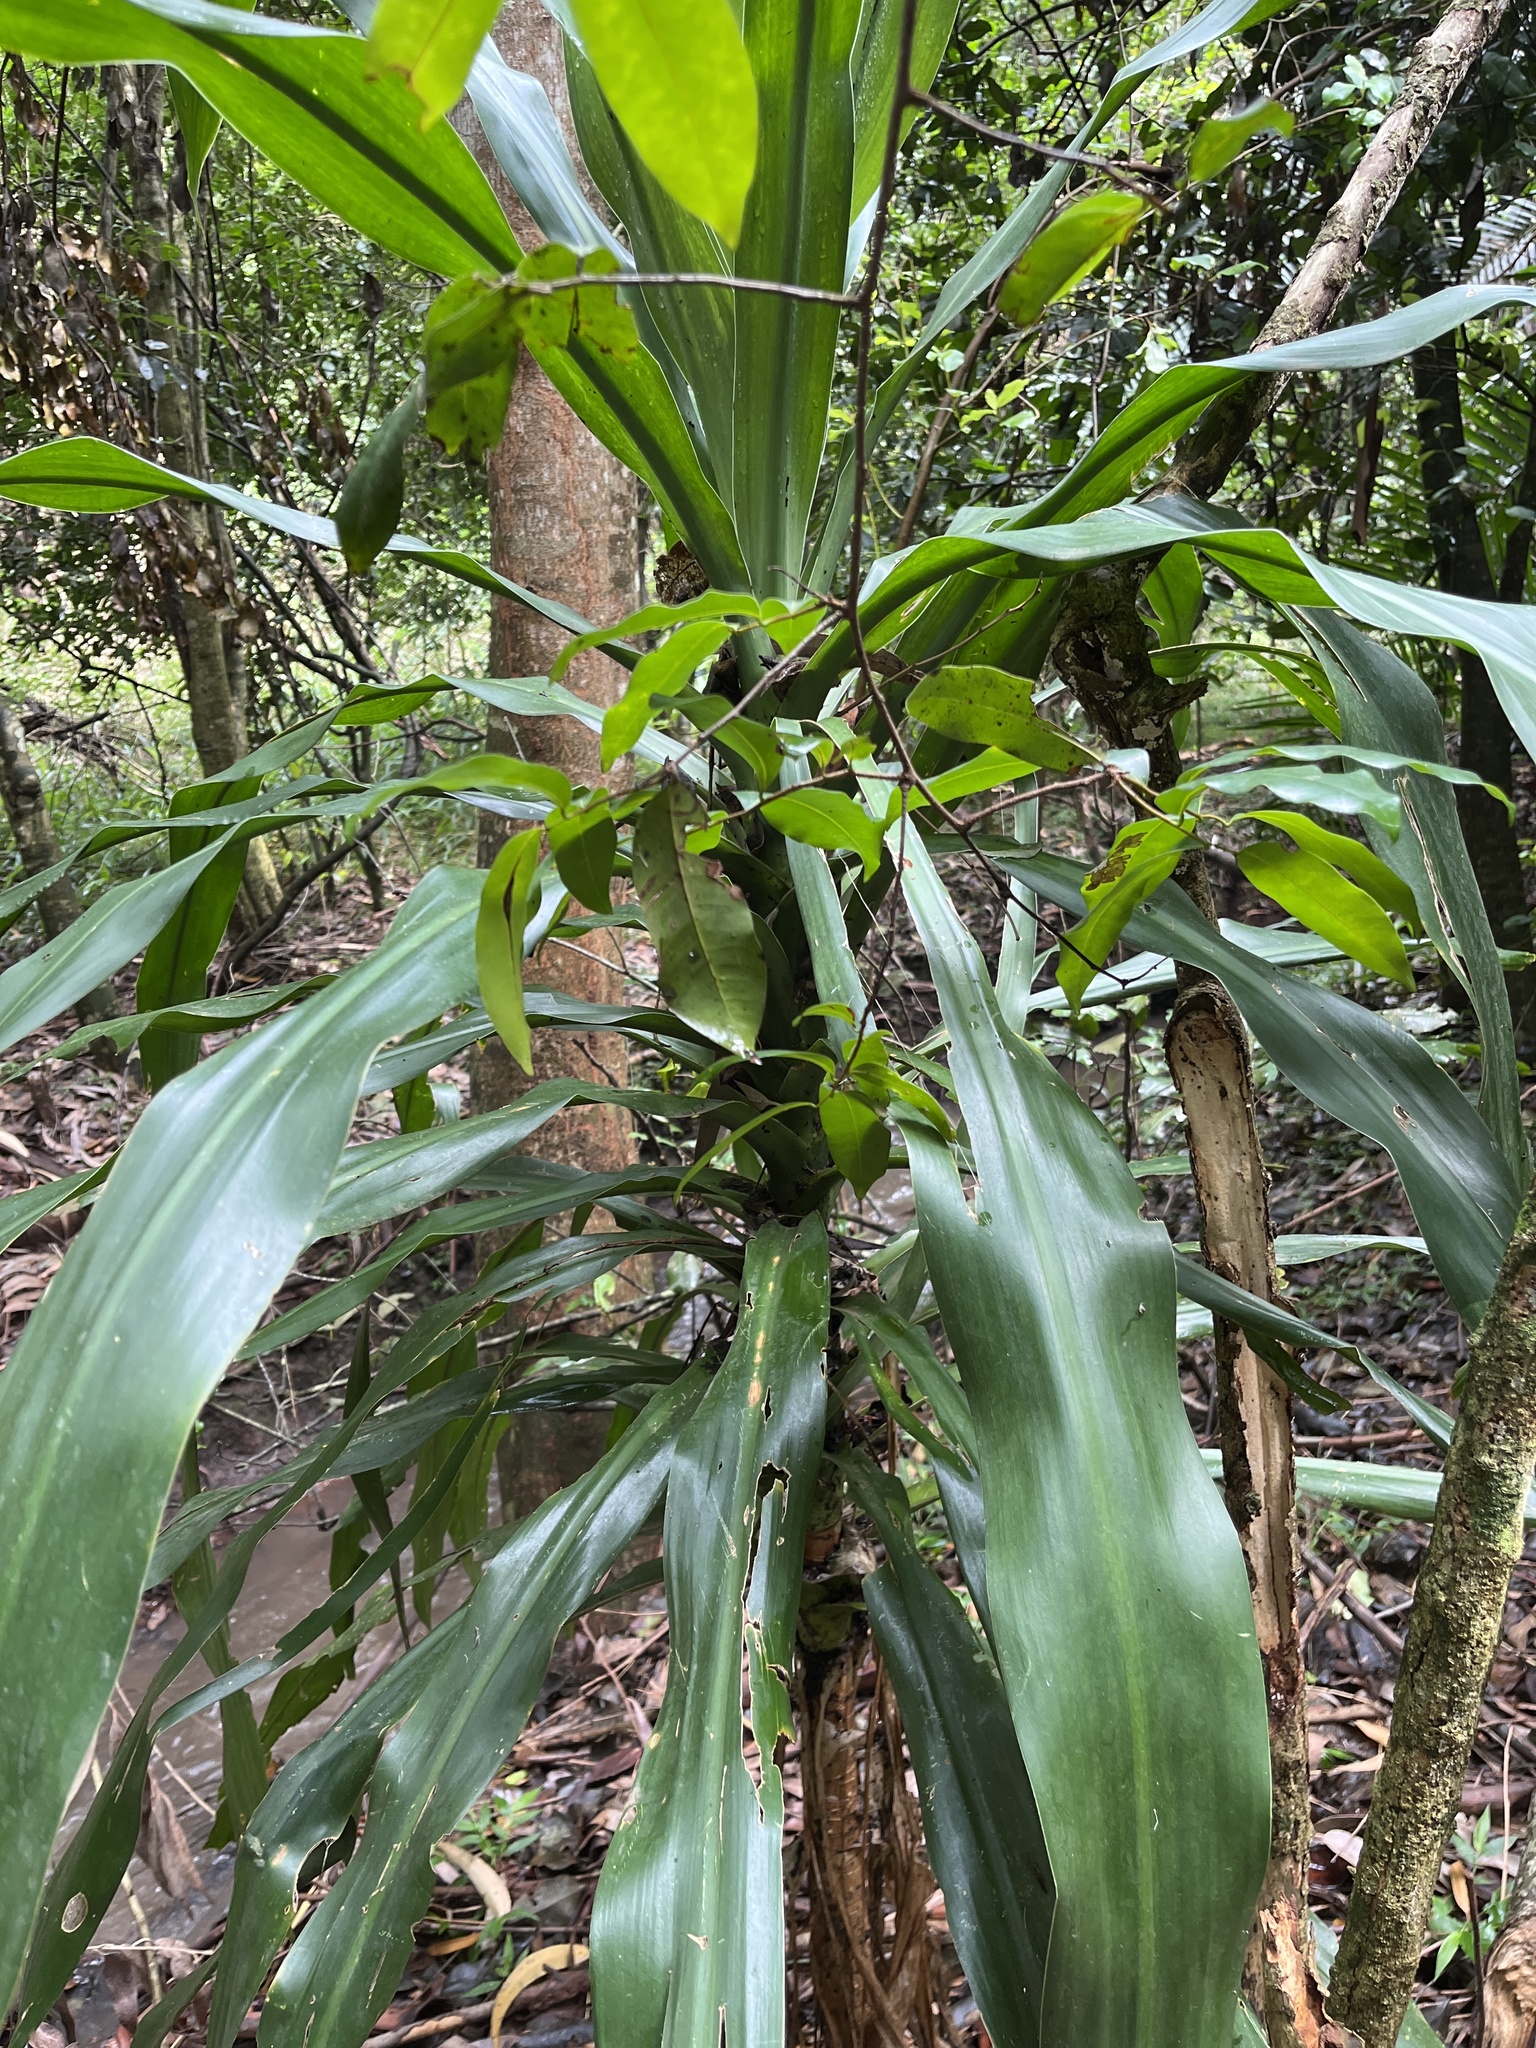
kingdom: Plantae
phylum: Tracheophyta
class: Liliopsida
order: Asparagales
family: Asparagaceae
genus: Dracaena
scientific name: Dracaena fragrans
